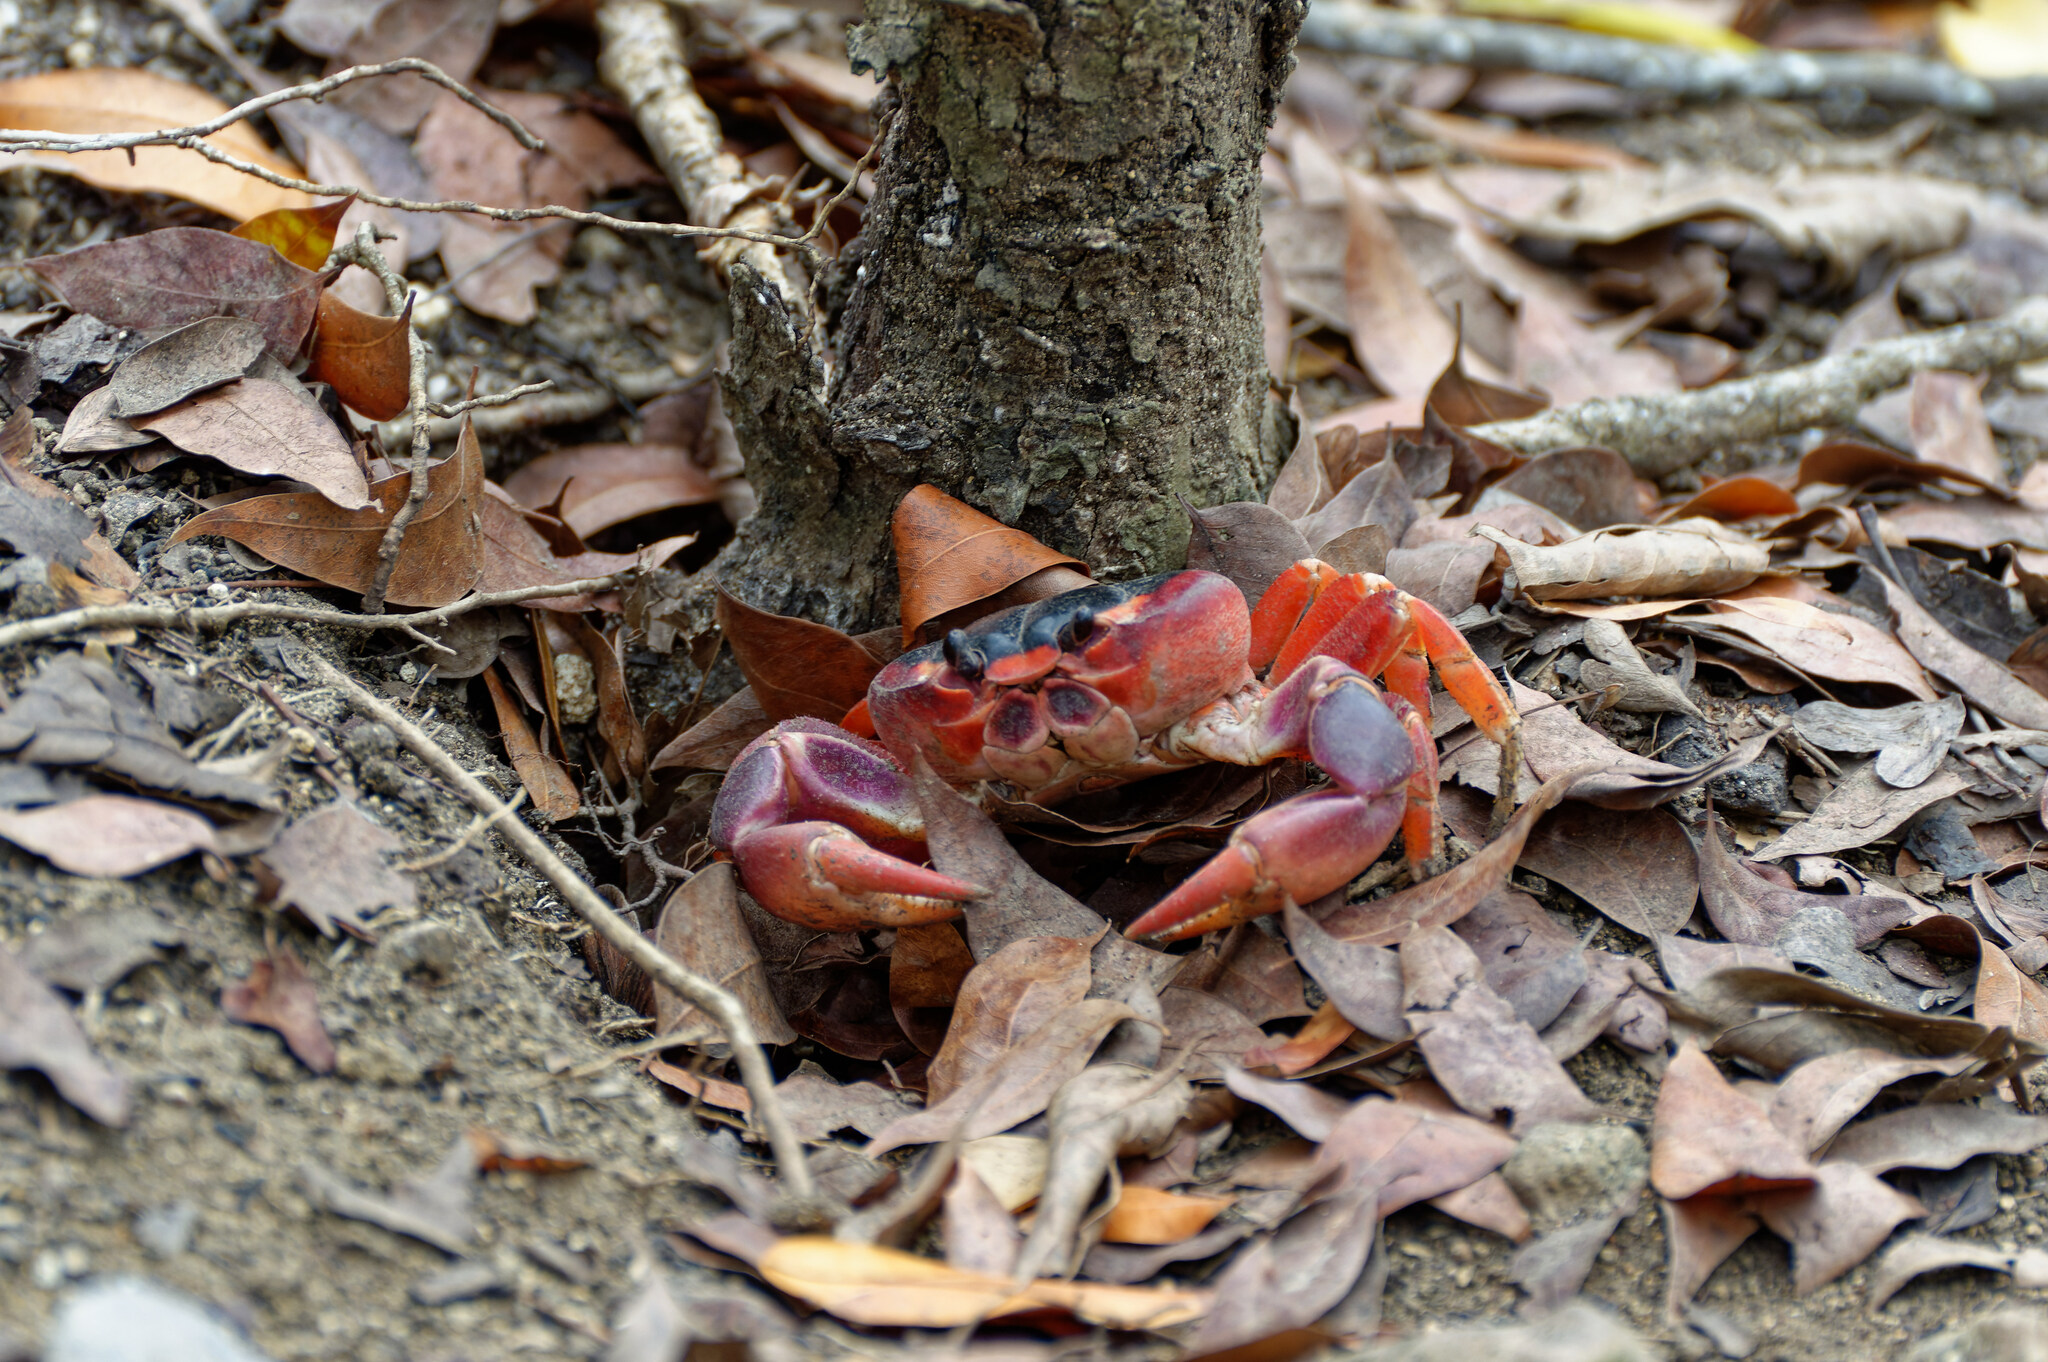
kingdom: Animalia
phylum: Arthropoda
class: Malacostraca
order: Decapoda
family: Gecarcinidae
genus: Gecarcinus
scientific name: Gecarcinus lateralis
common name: Bermuda land crab
